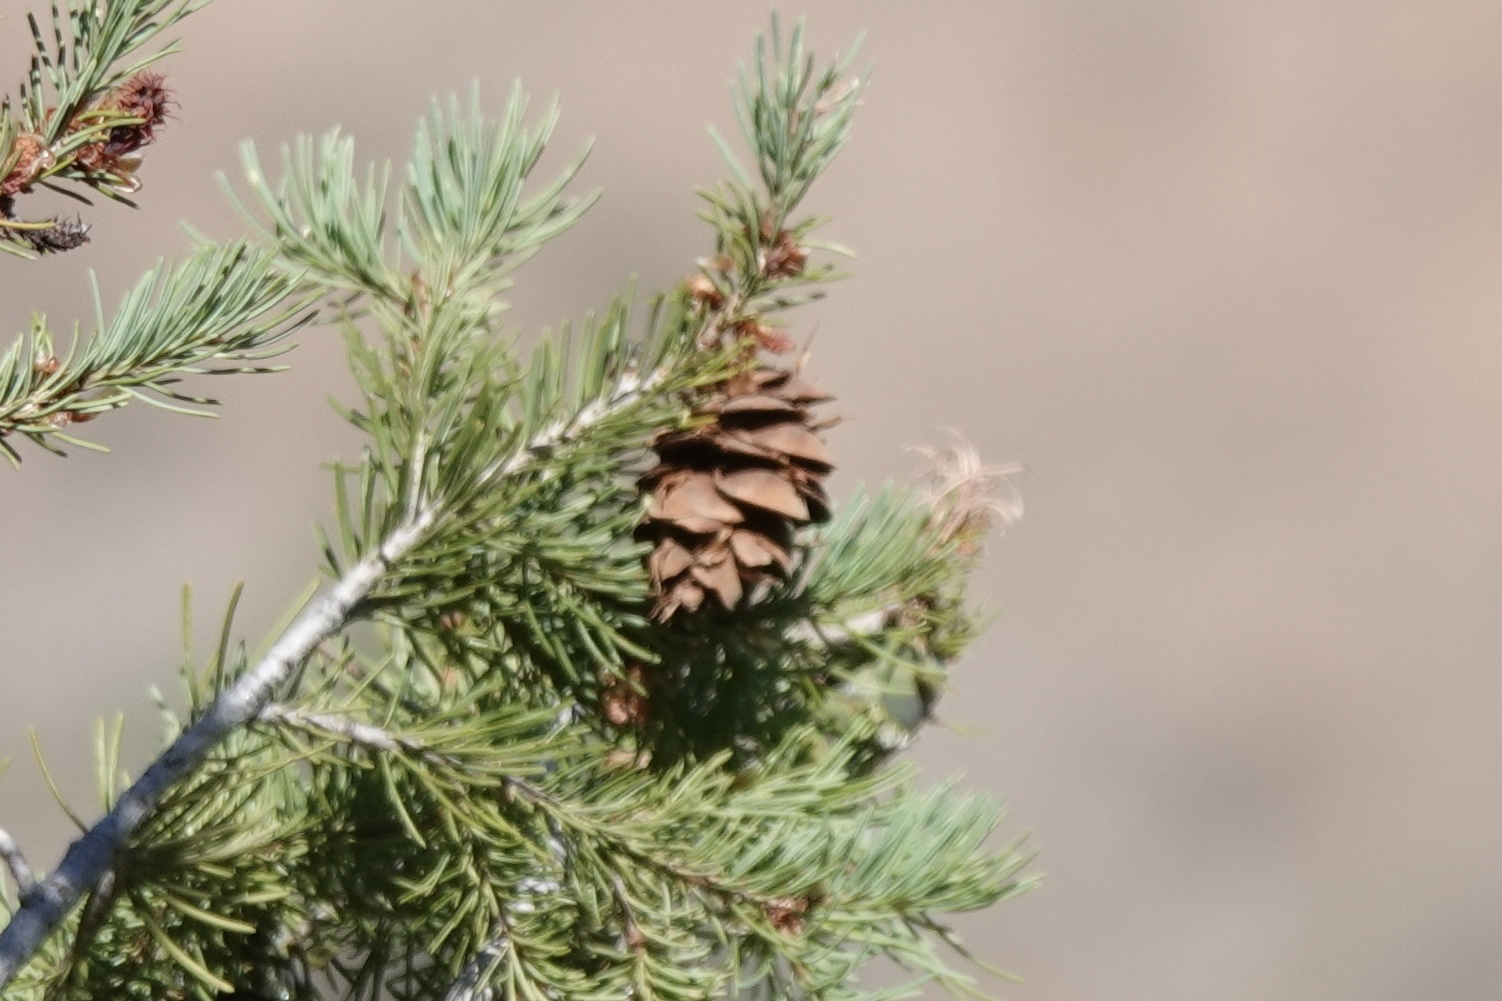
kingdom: Plantae
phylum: Tracheophyta
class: Pinopsida
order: Pinales
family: Pinaceae
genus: Pseudotsuga
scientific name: Pseudotsuga menziesii
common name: Douglas fir
